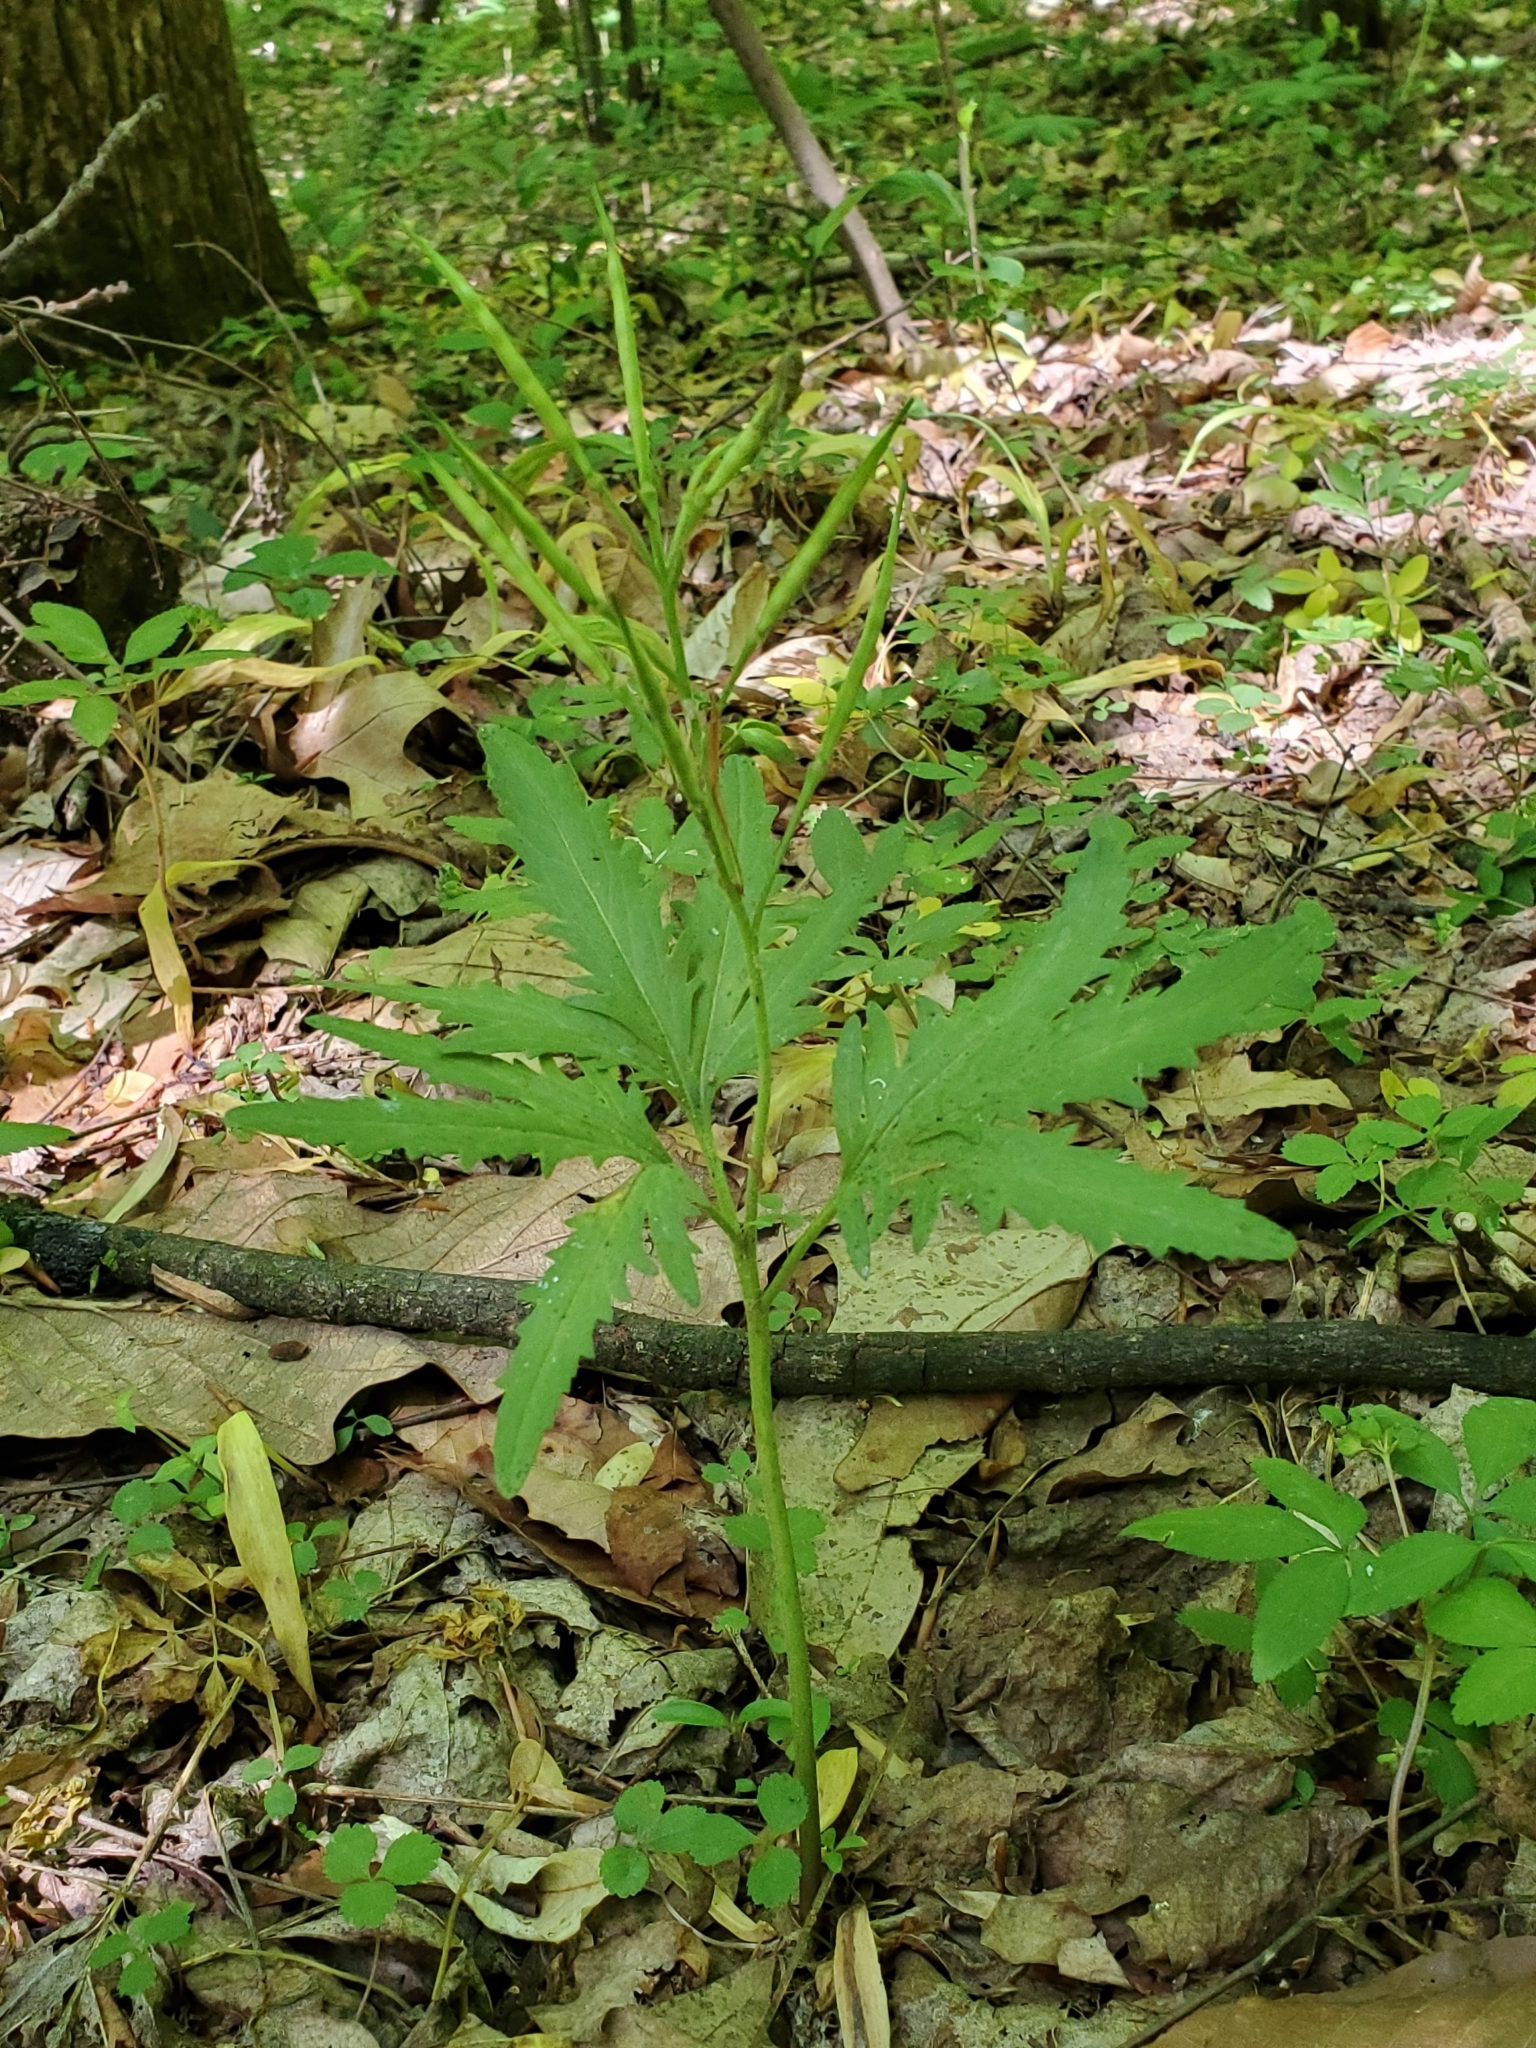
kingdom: Plantae
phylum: Tracheophyta
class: Magnoliopsida
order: Brassicales
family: Brassicaceae
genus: Cardamine
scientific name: Cardamine concatenata
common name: Cut-leaf toothcup
